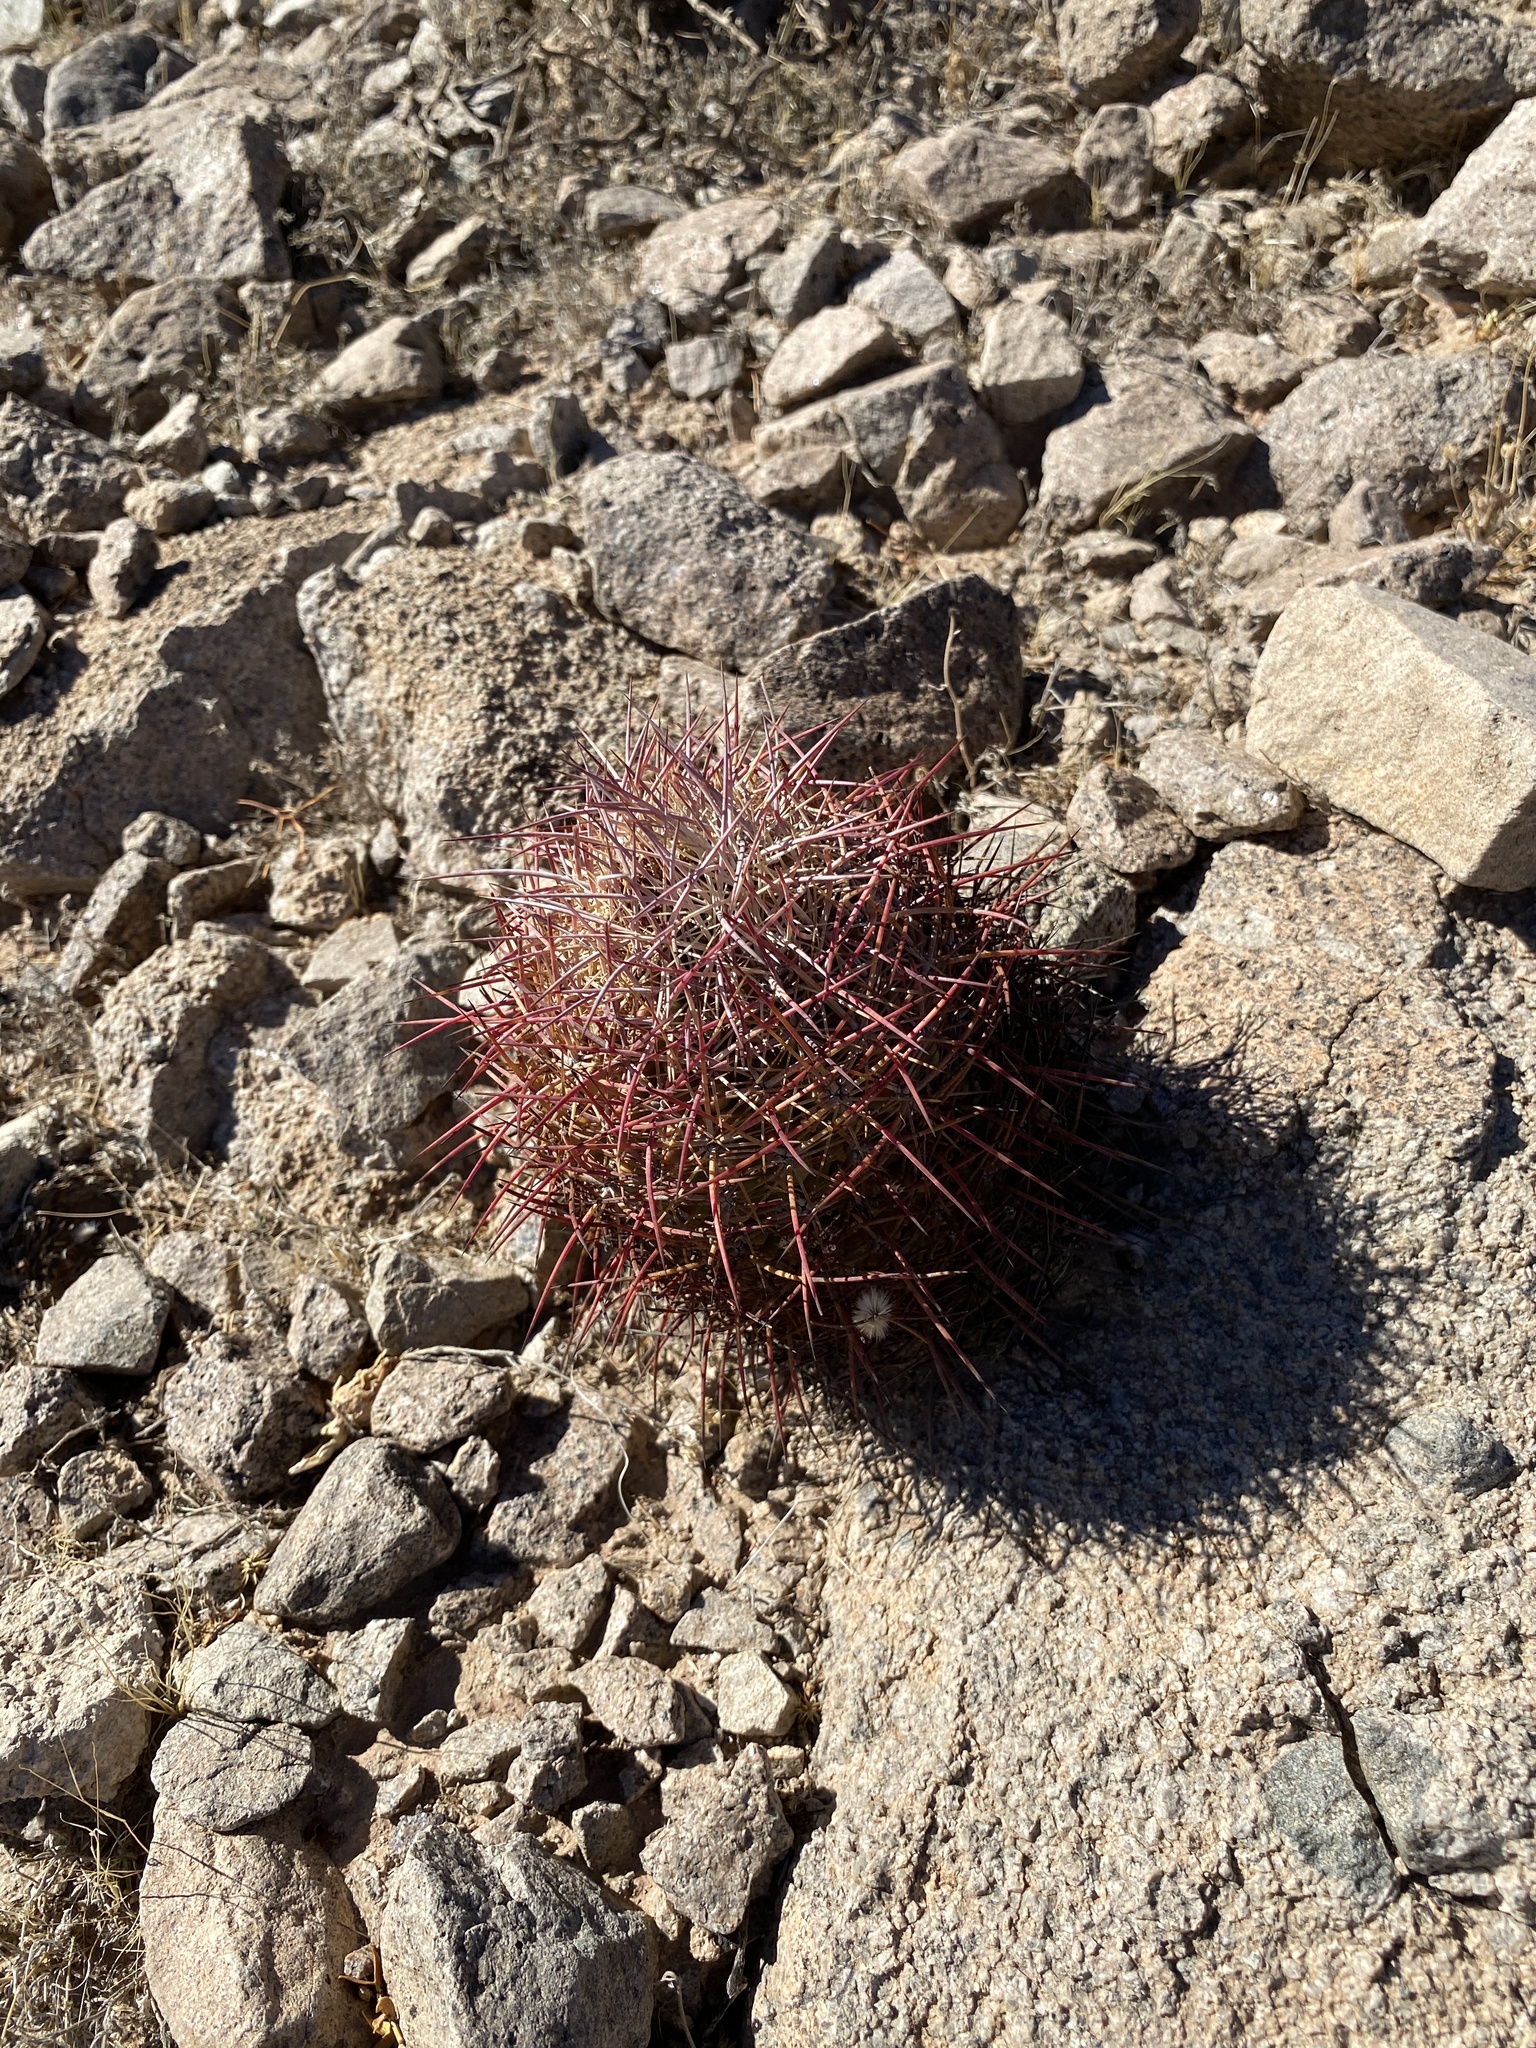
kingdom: Plantae
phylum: Tracheophyta
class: Magnoliopsida
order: Caryophyllales
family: Cactaceae
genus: Sclerocactus
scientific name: Sclerocactus johnsonii
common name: Eight-spine fishhook cactus
